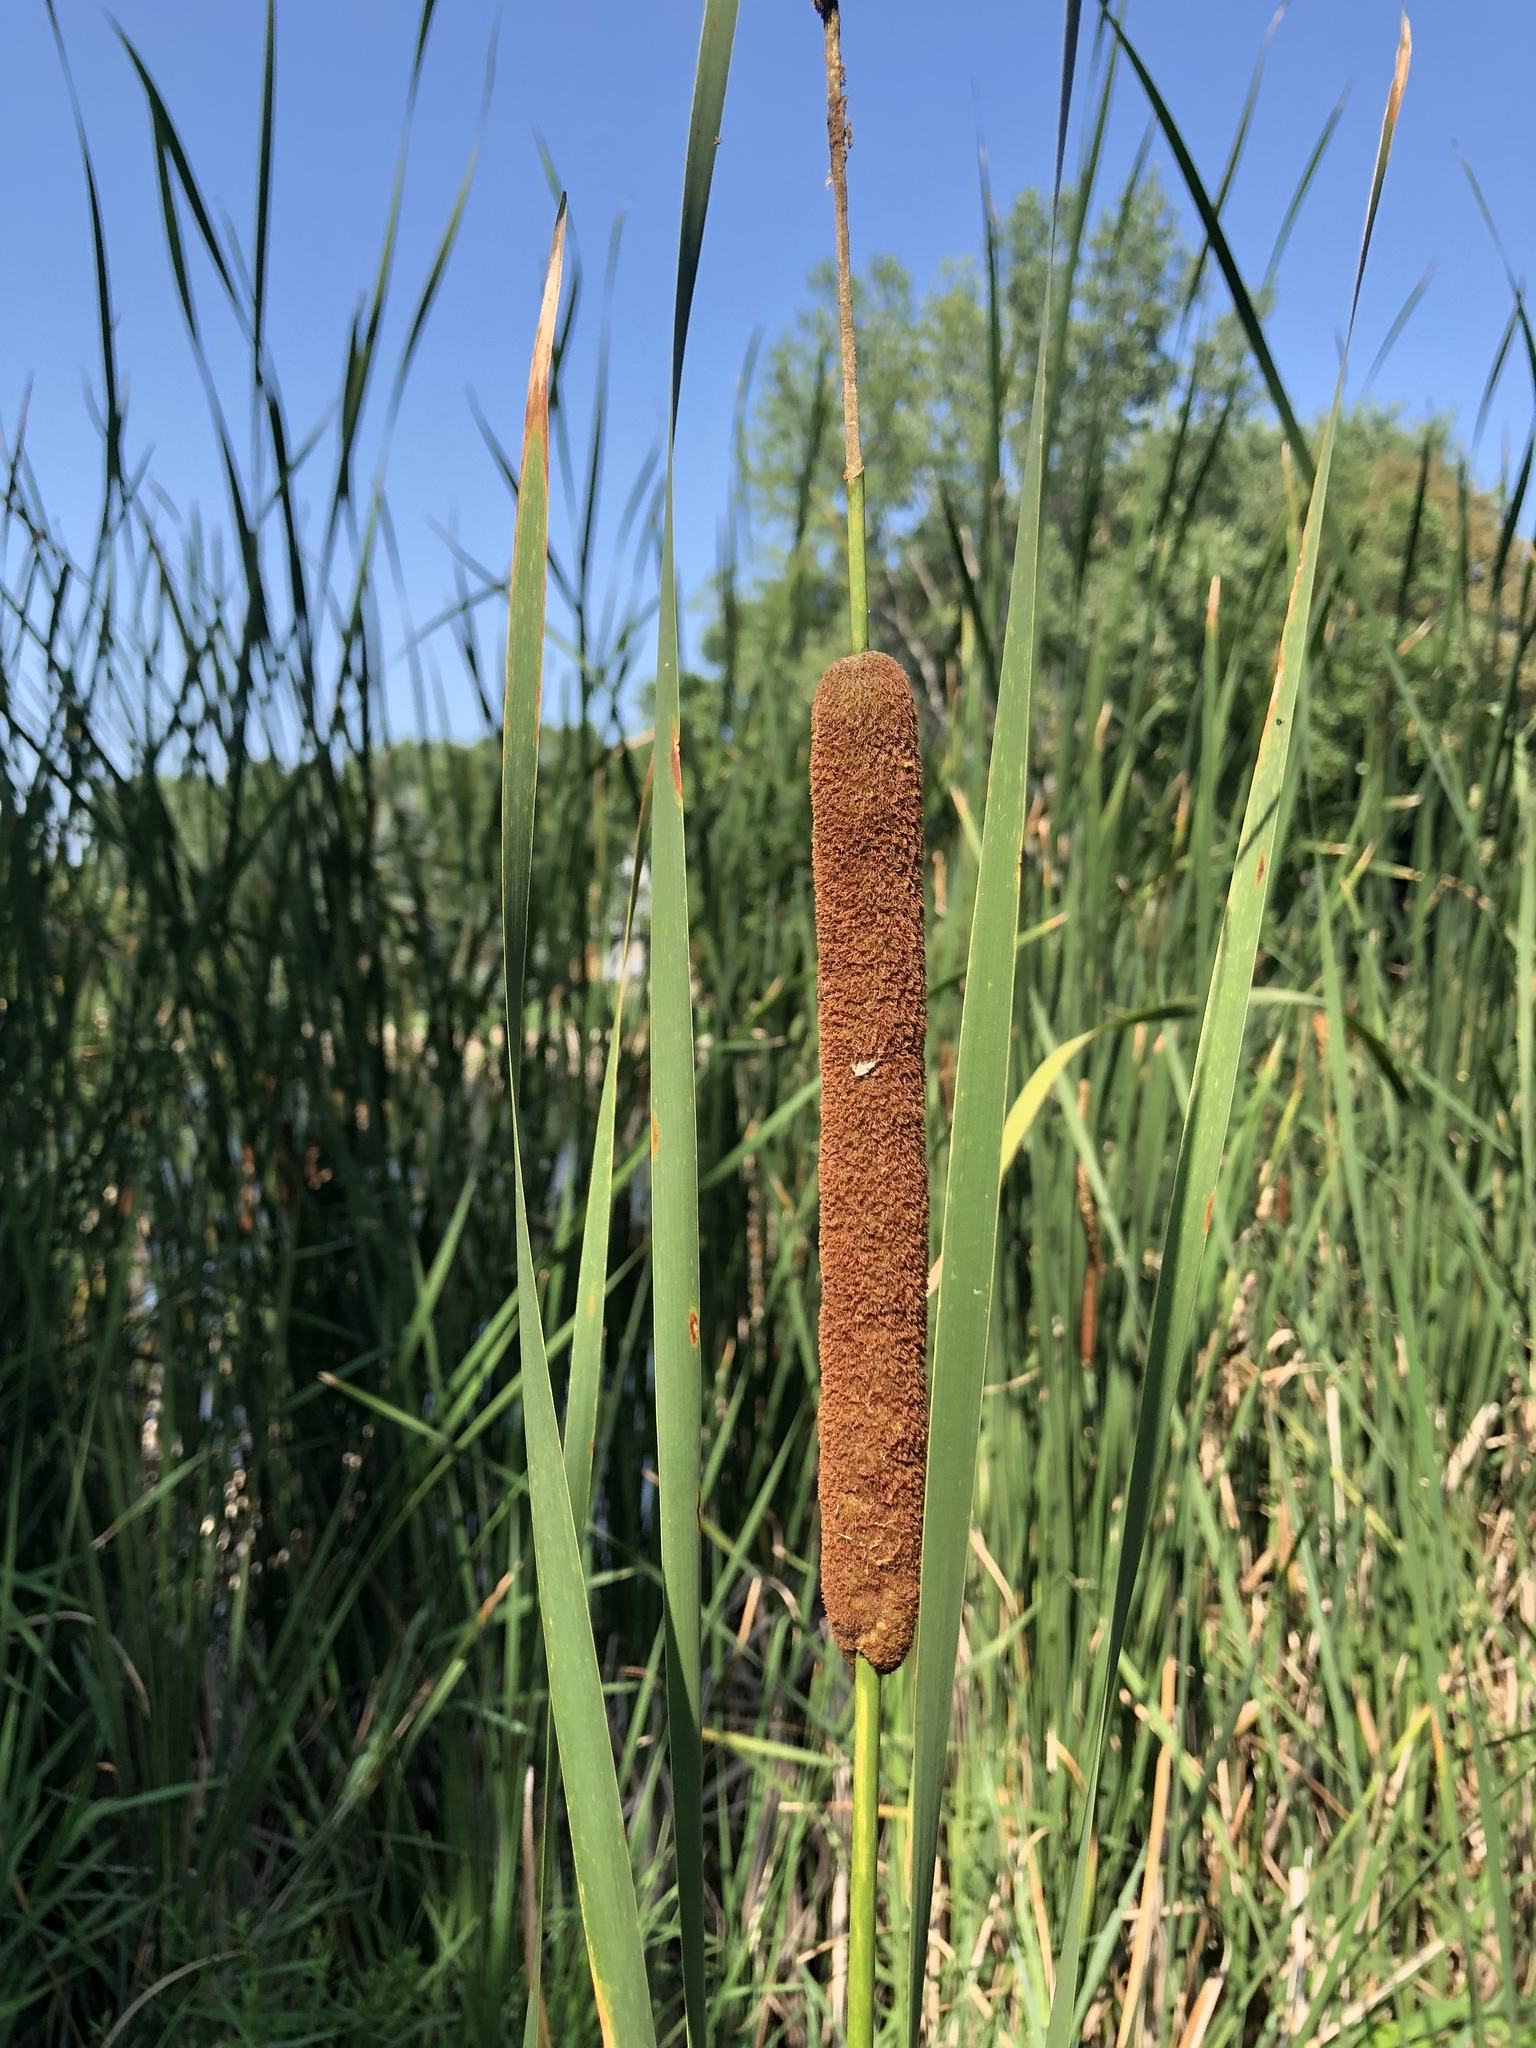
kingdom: Plantae
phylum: Tracheophyta
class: Liliopsida
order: Poales
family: Typhaceae
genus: Typha
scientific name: Typha angustifolia
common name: Lesser bulrush
